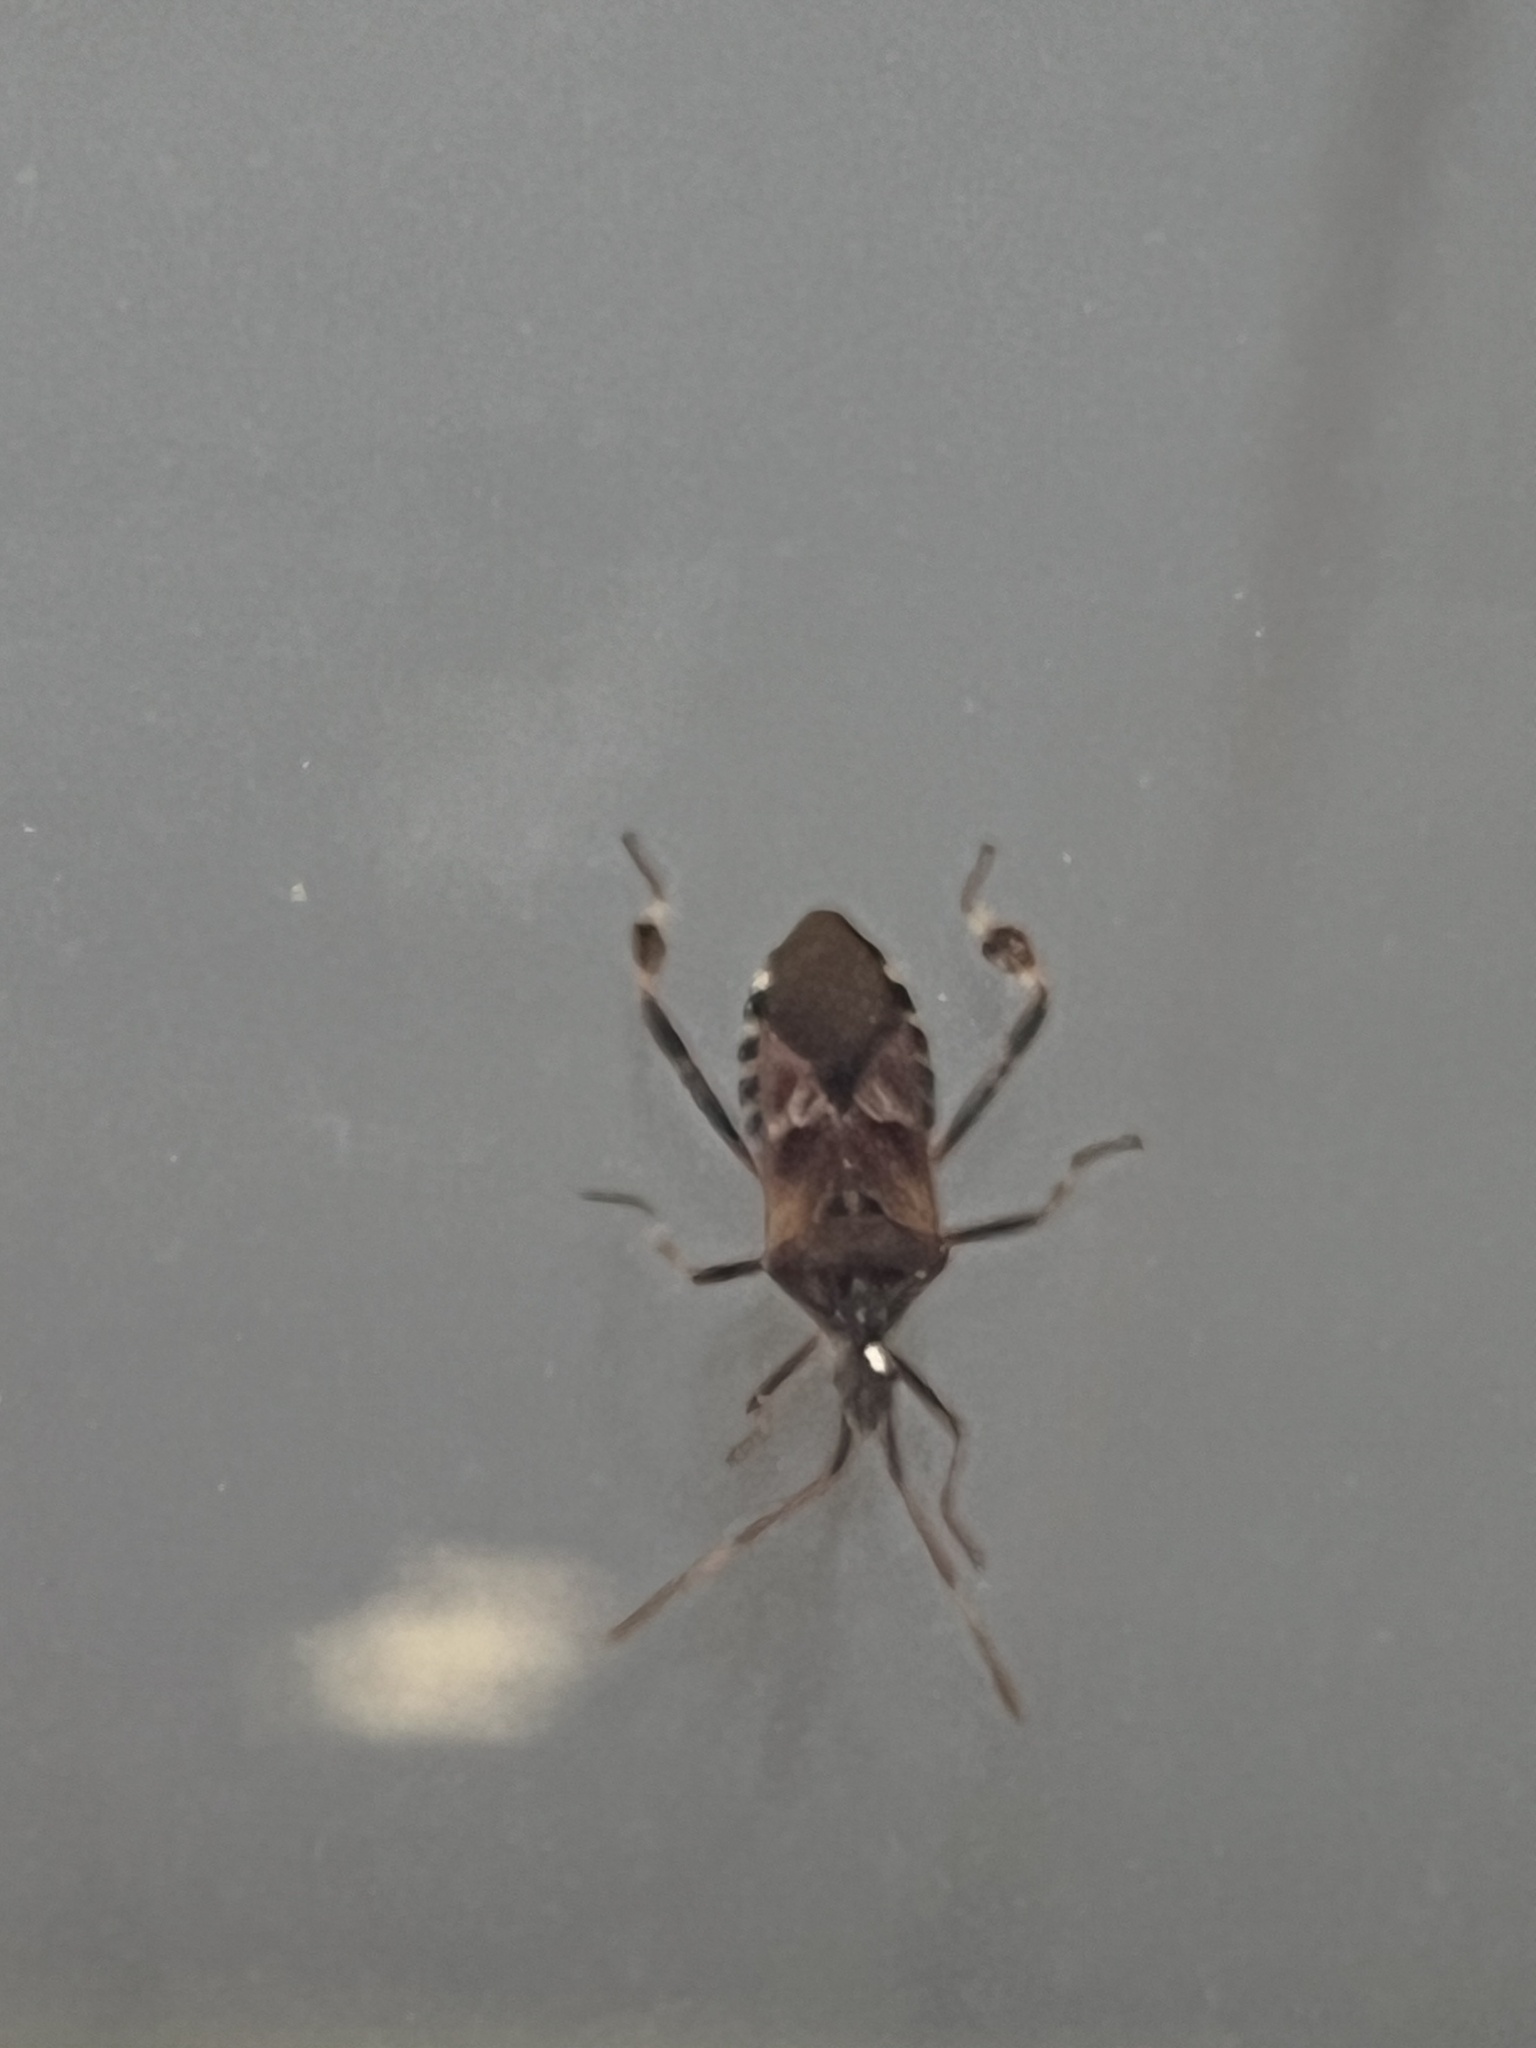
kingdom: Animalia
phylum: Arthropoda
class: Insecta
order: Hemiptera
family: Coreidae
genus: Leptoglossus
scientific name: Leptoglossus occidentalis
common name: Western conifer-seed bug
